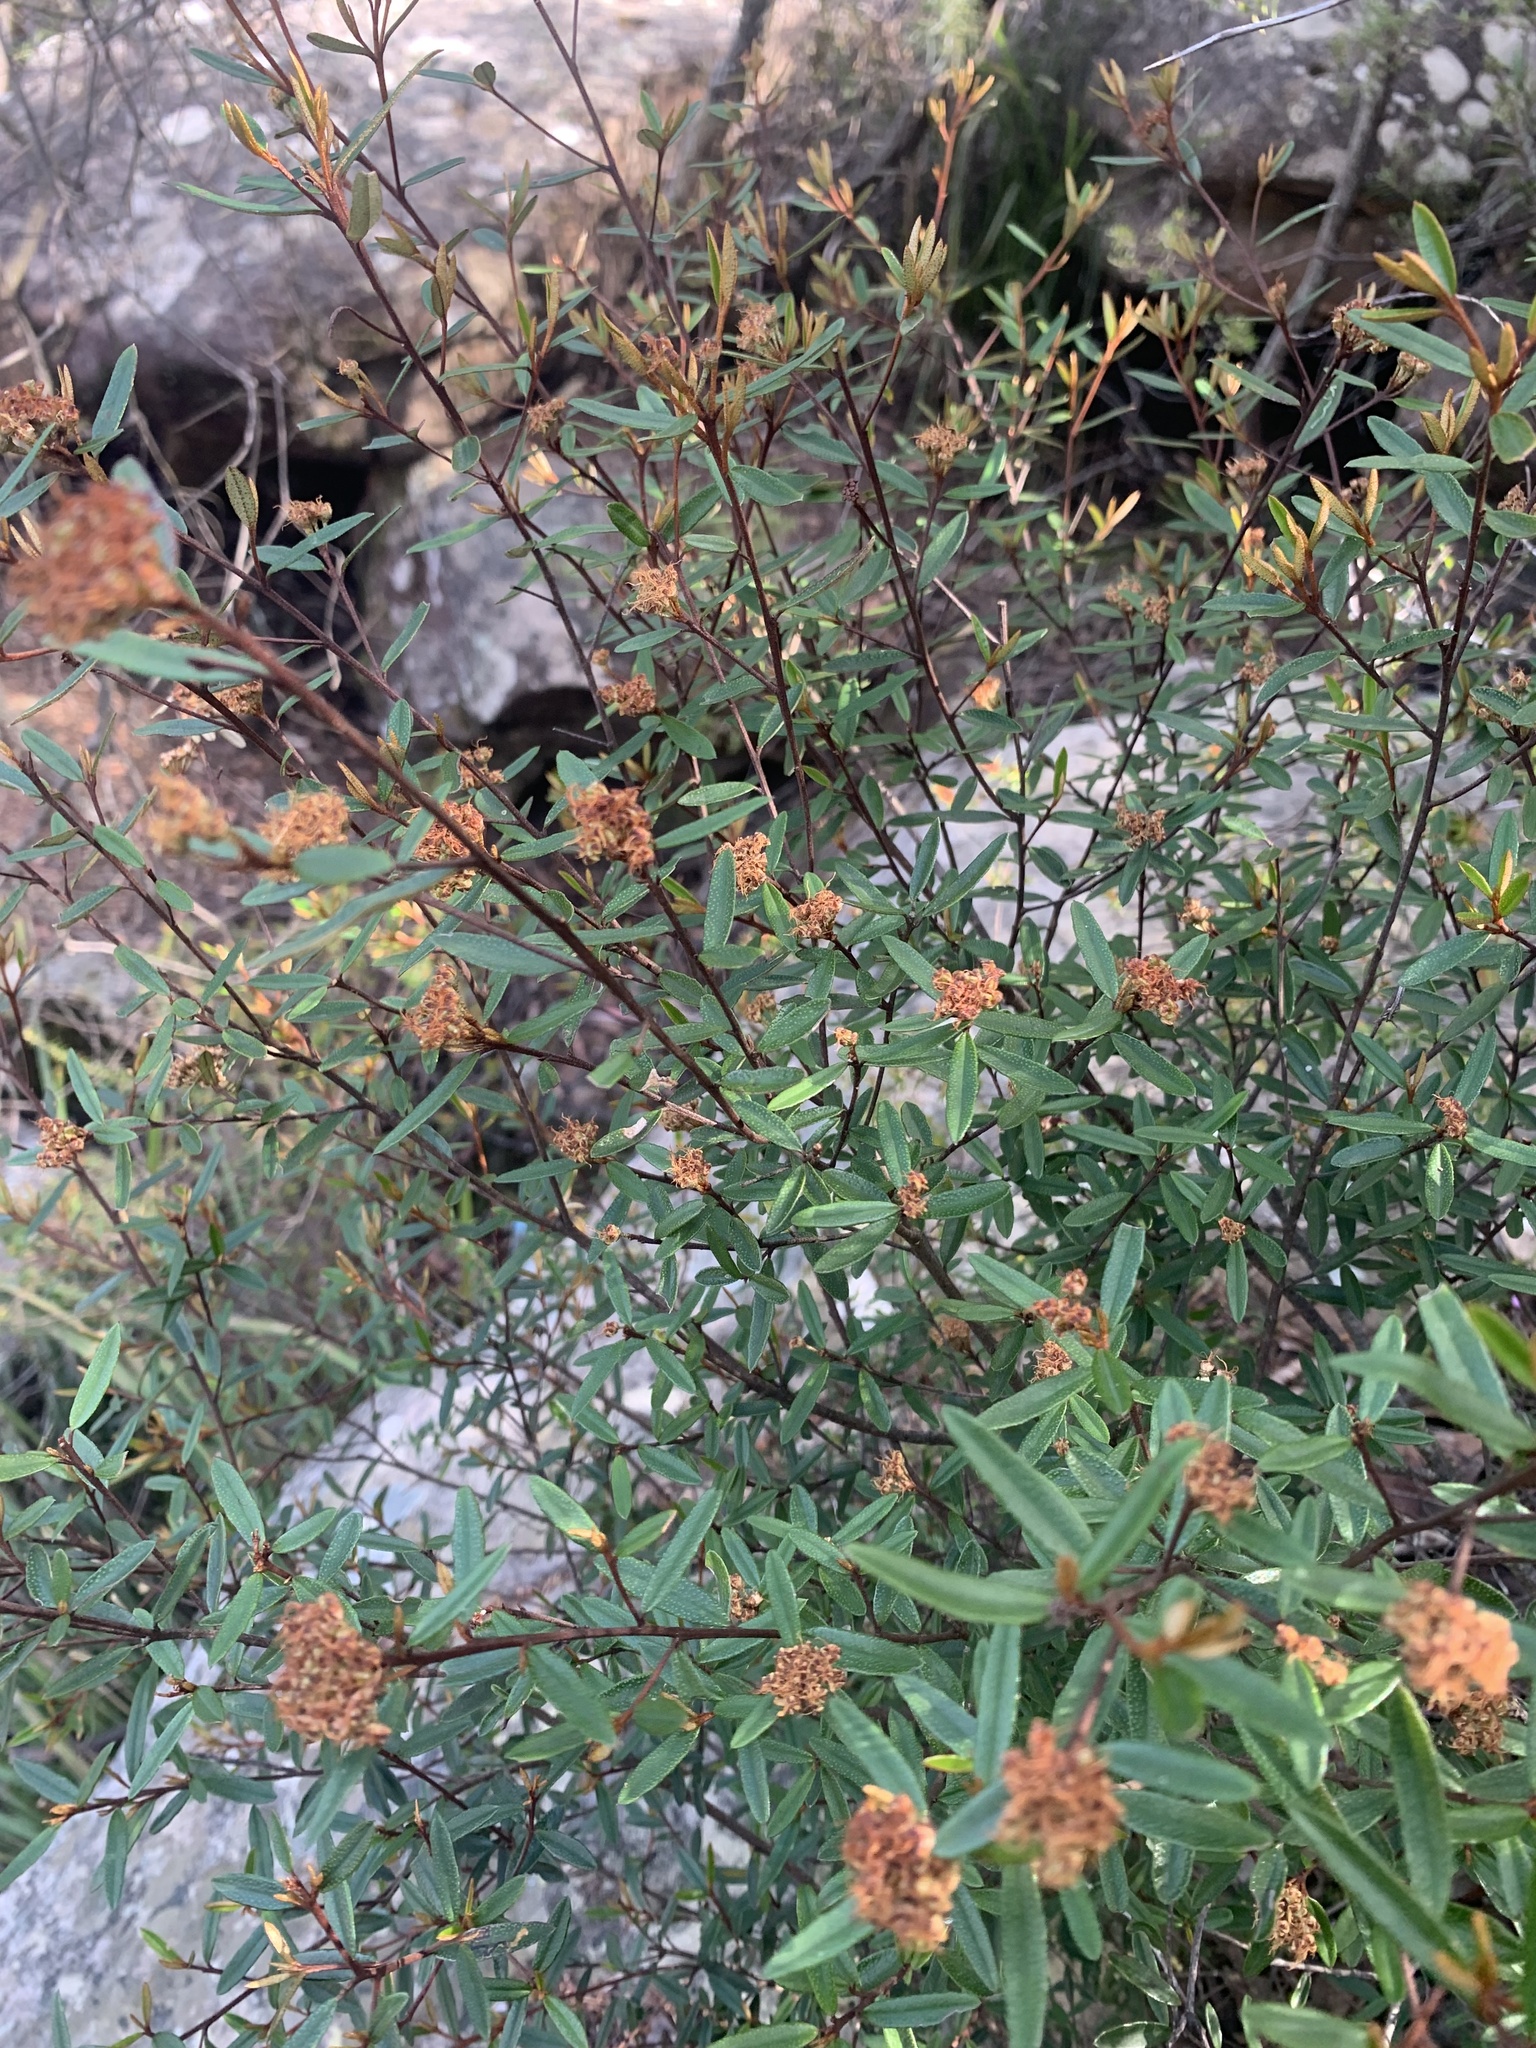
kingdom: Plantae
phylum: Tracheophyta
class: Magnoliopsida
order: Sapindales
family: Rutaceae
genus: Phebalium
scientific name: Phebalium squamulosum
